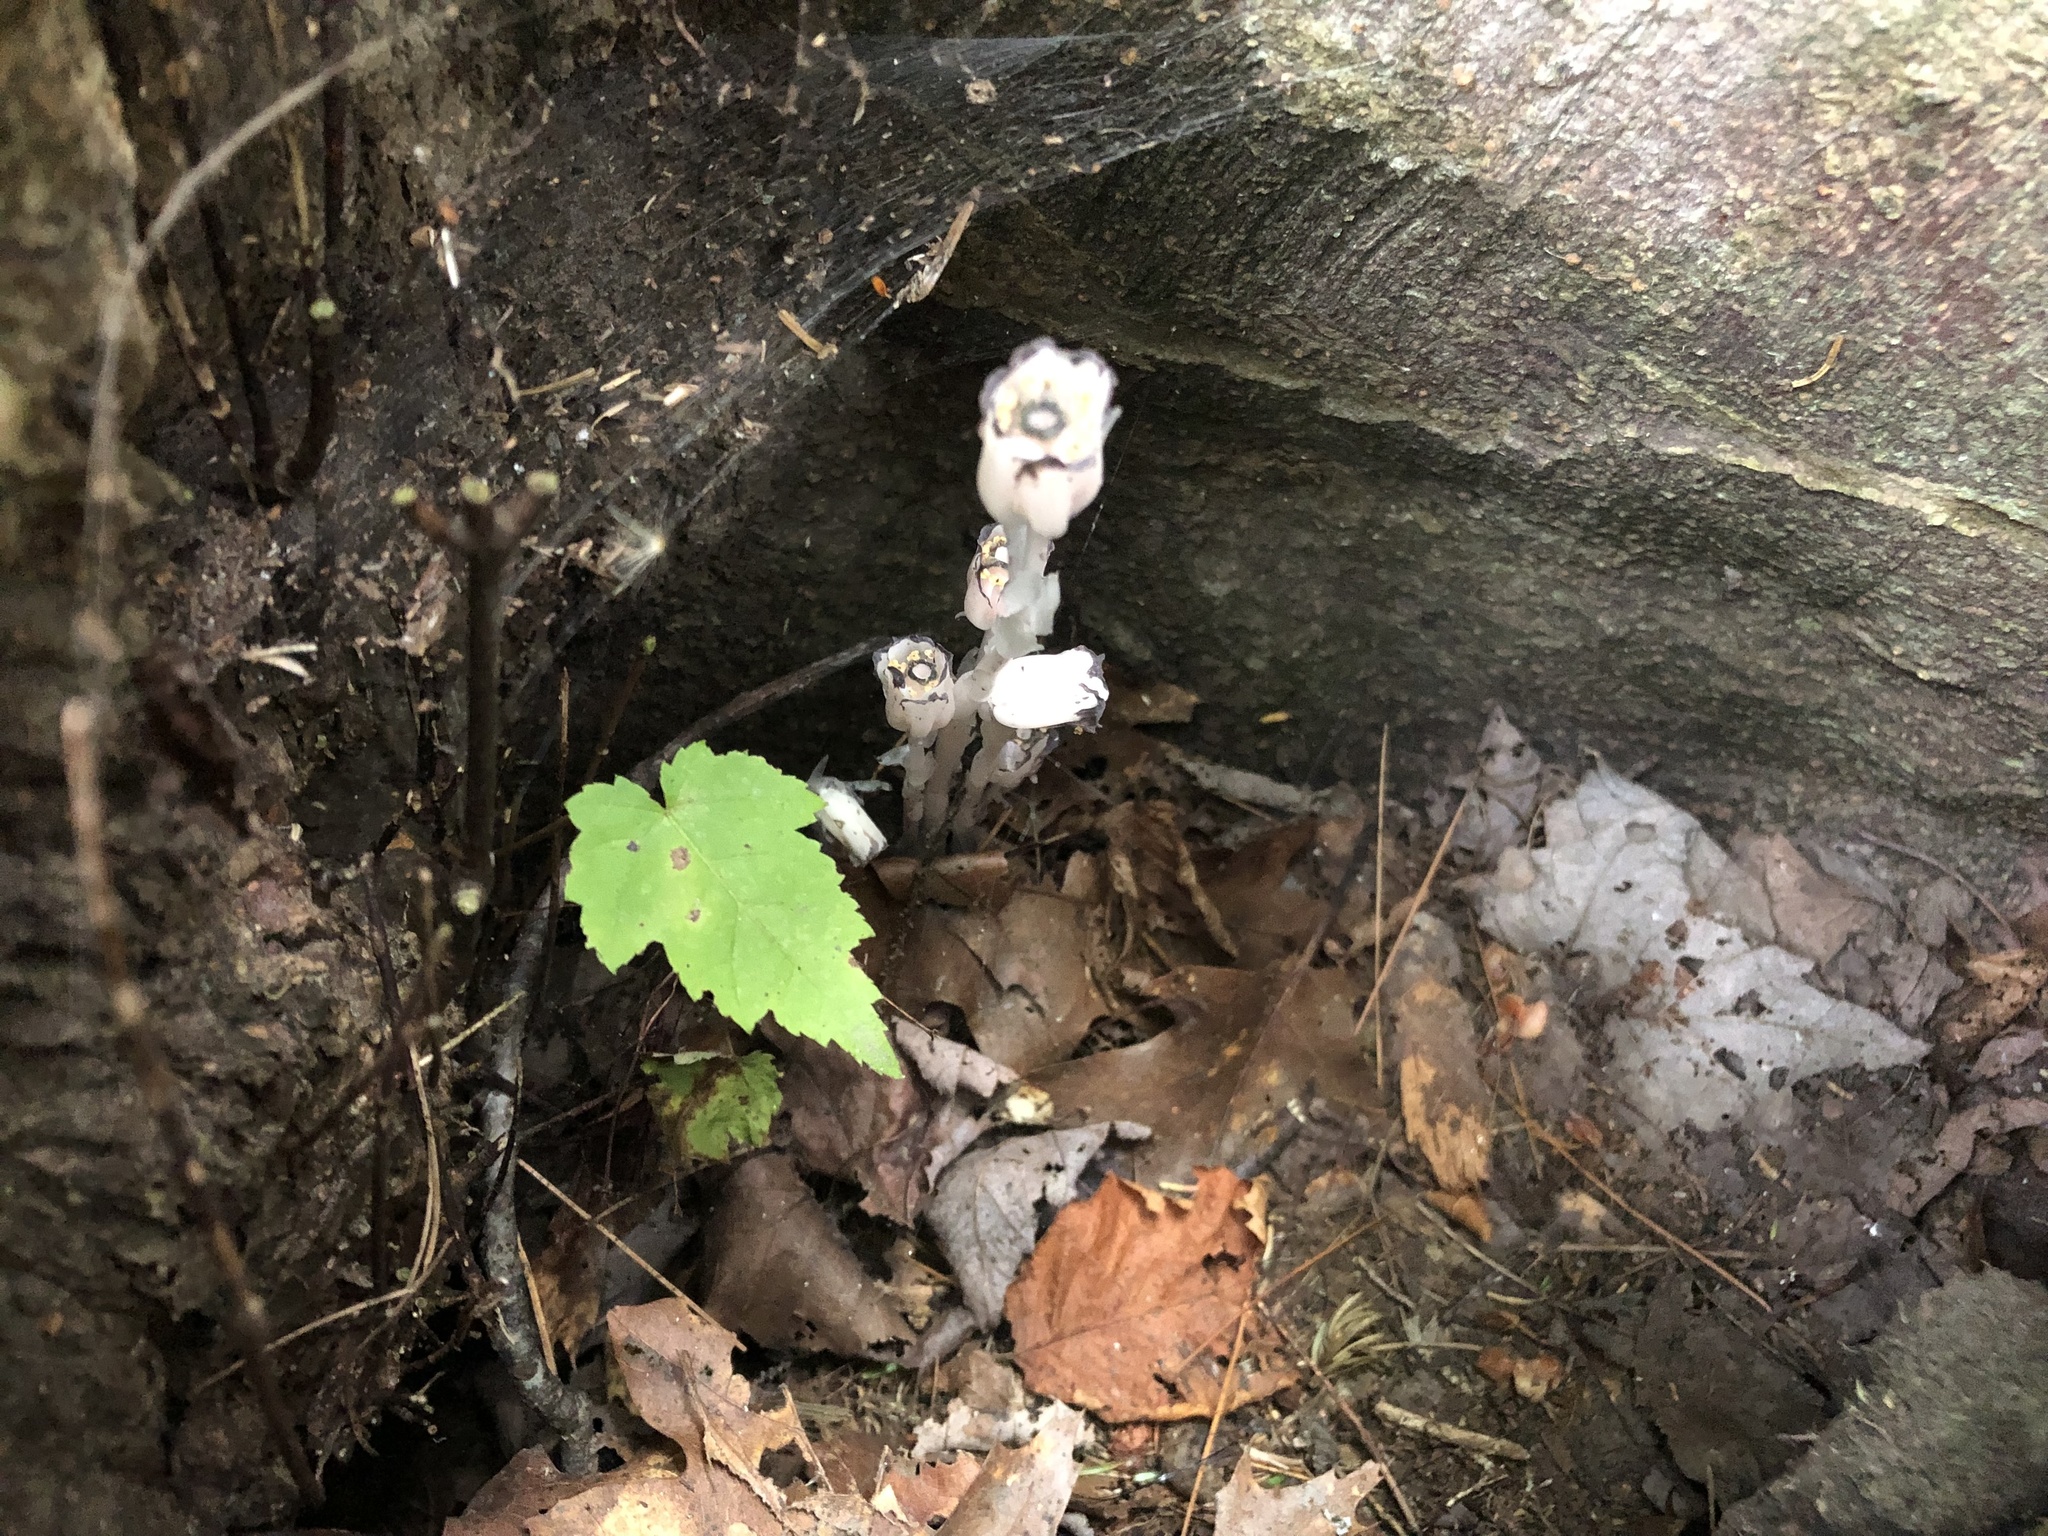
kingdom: Plantae
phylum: Tracheophyta
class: Magnoliopsida
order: Ericales
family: Ericaceae
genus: Monotropa
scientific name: Monotropa uniflora
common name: Convulsion root
